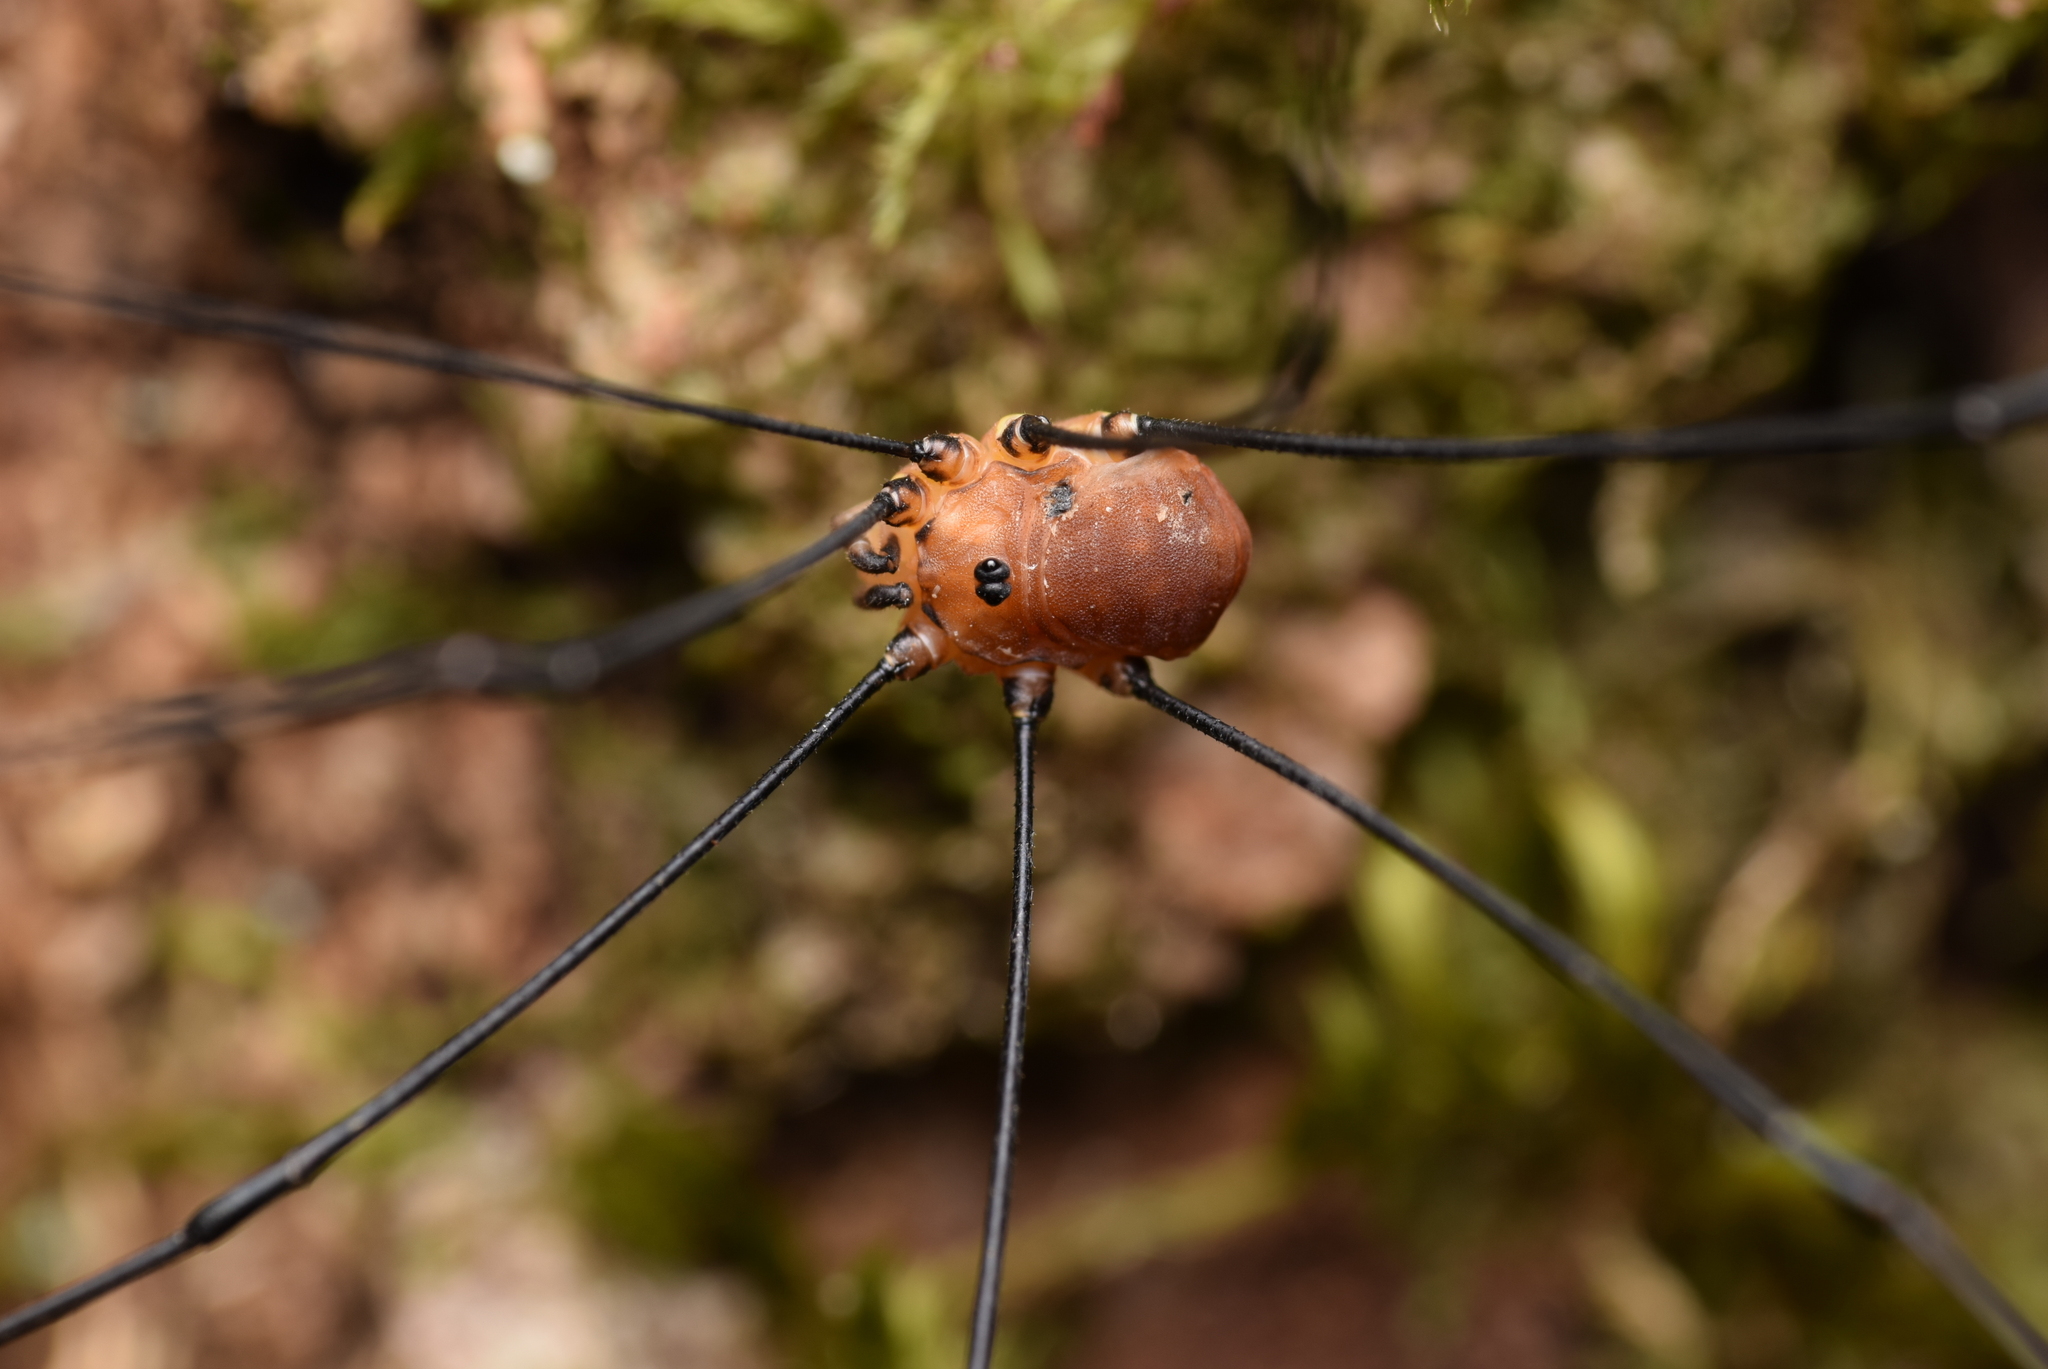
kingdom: Animalia
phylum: Arthropoda
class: Arachnida
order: Opiliones
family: Sclerosomatidae
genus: Leiobunum
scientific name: Leiobunum rotundum
